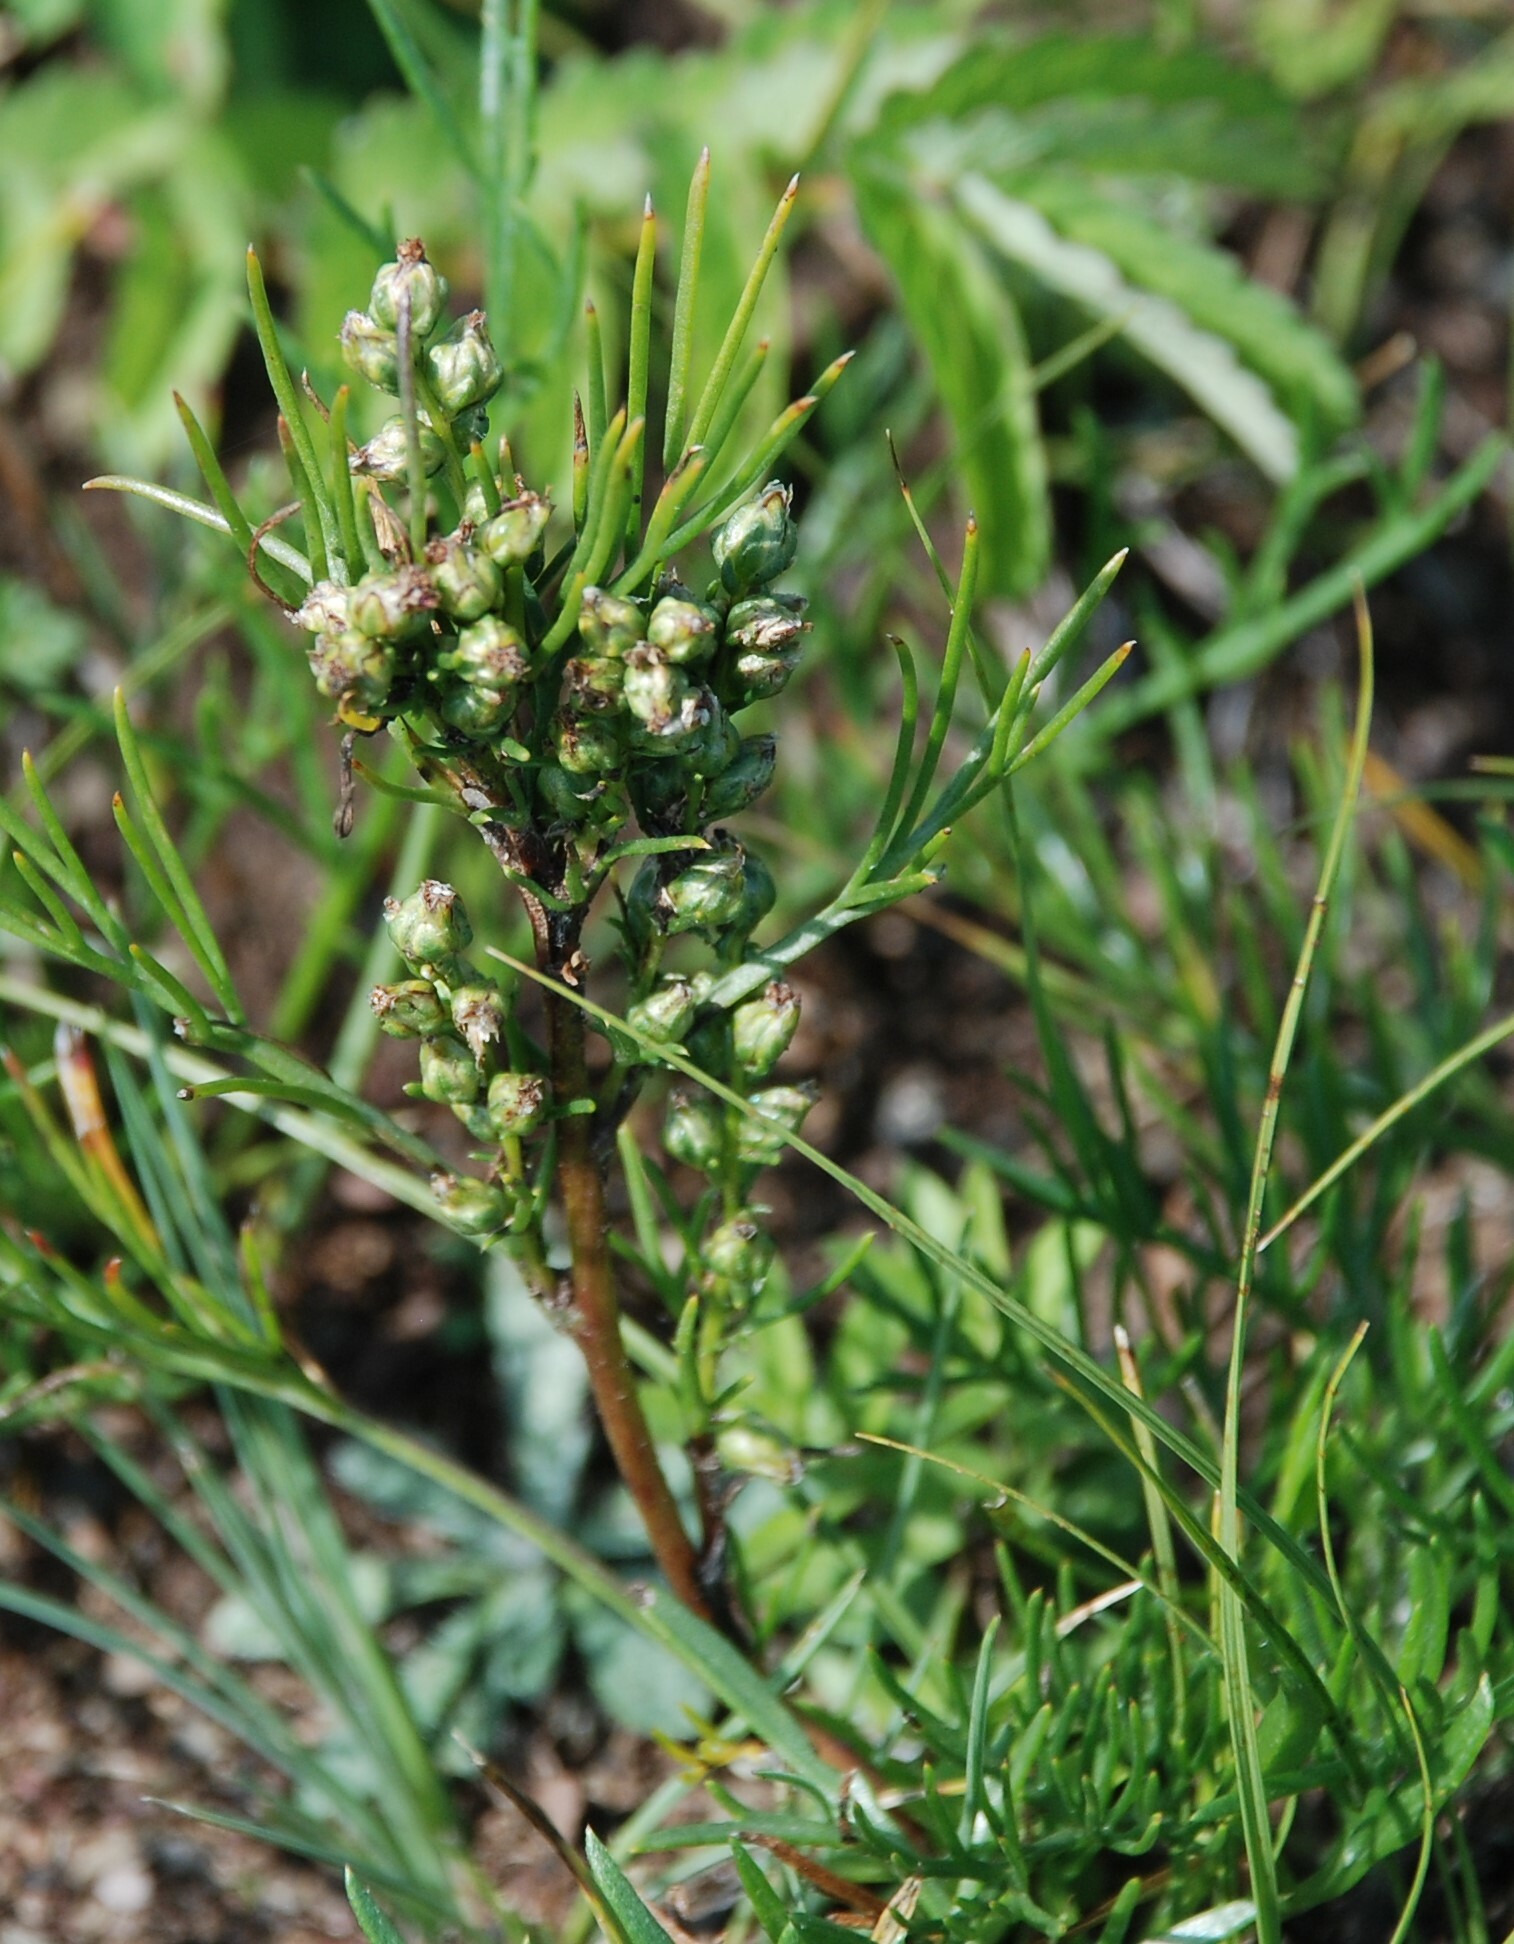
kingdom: Plantae
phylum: Tracheophyta
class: Magnoliopsida
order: Asterales
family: Asteraceae
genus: Artemisia
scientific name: Artemisia pubescens
